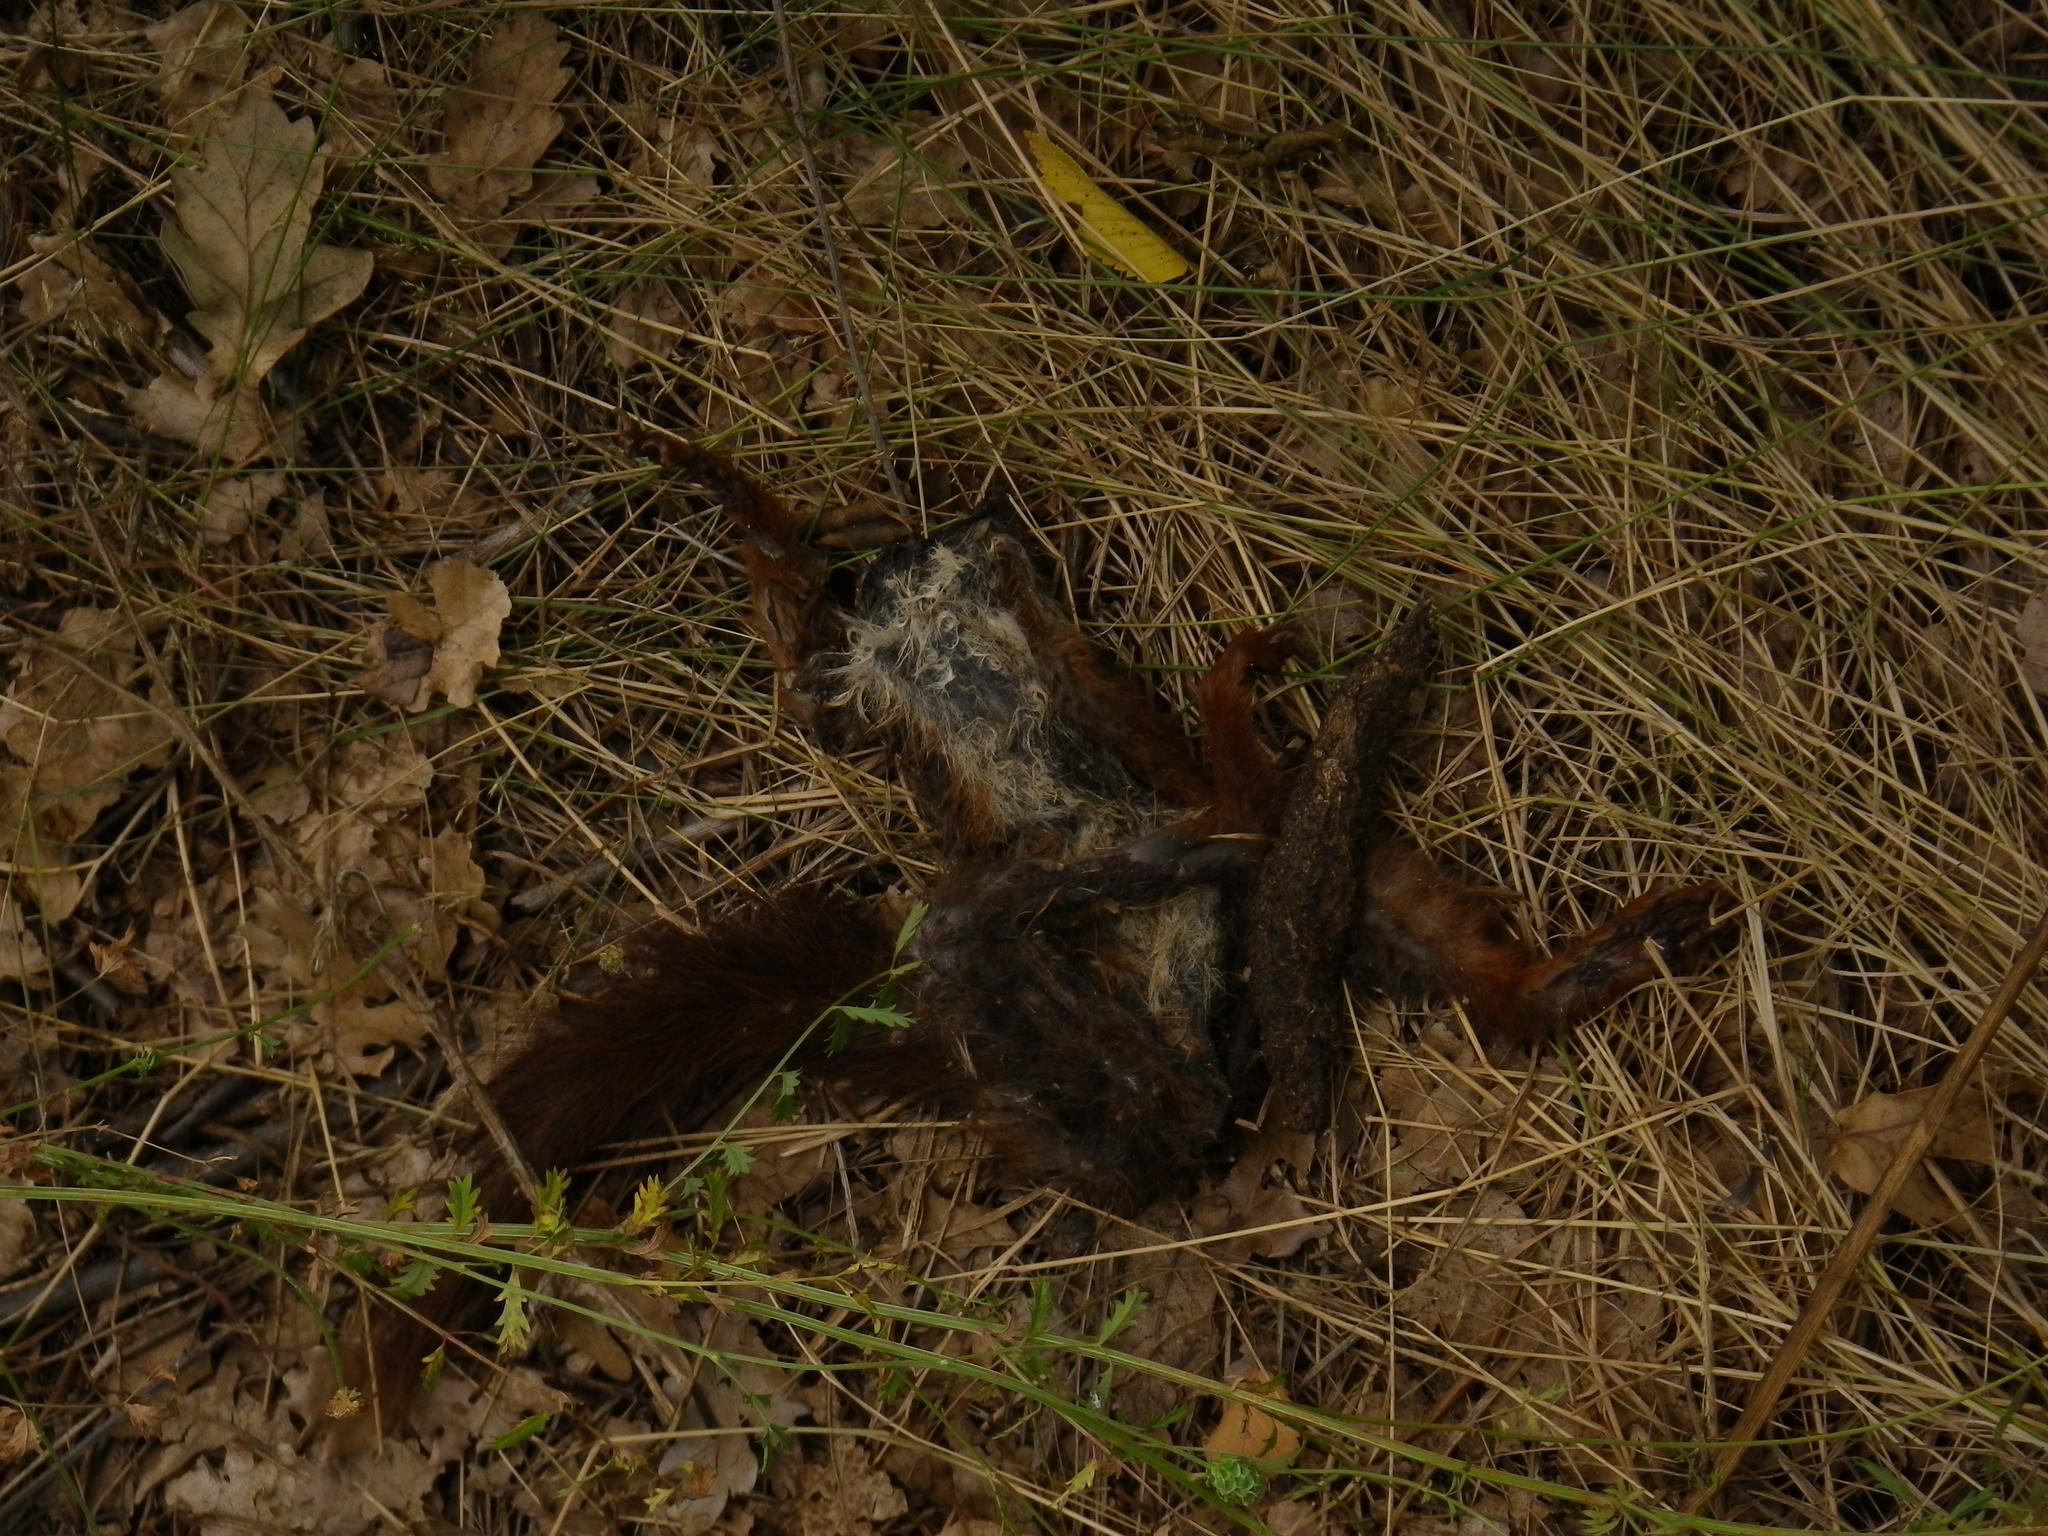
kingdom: Animalia
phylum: Chordata
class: Mammalia
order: Rodentia
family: Sciuridae
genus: Sciurus
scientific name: Sciurus vulgaris
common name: Eurasian red squirrel
